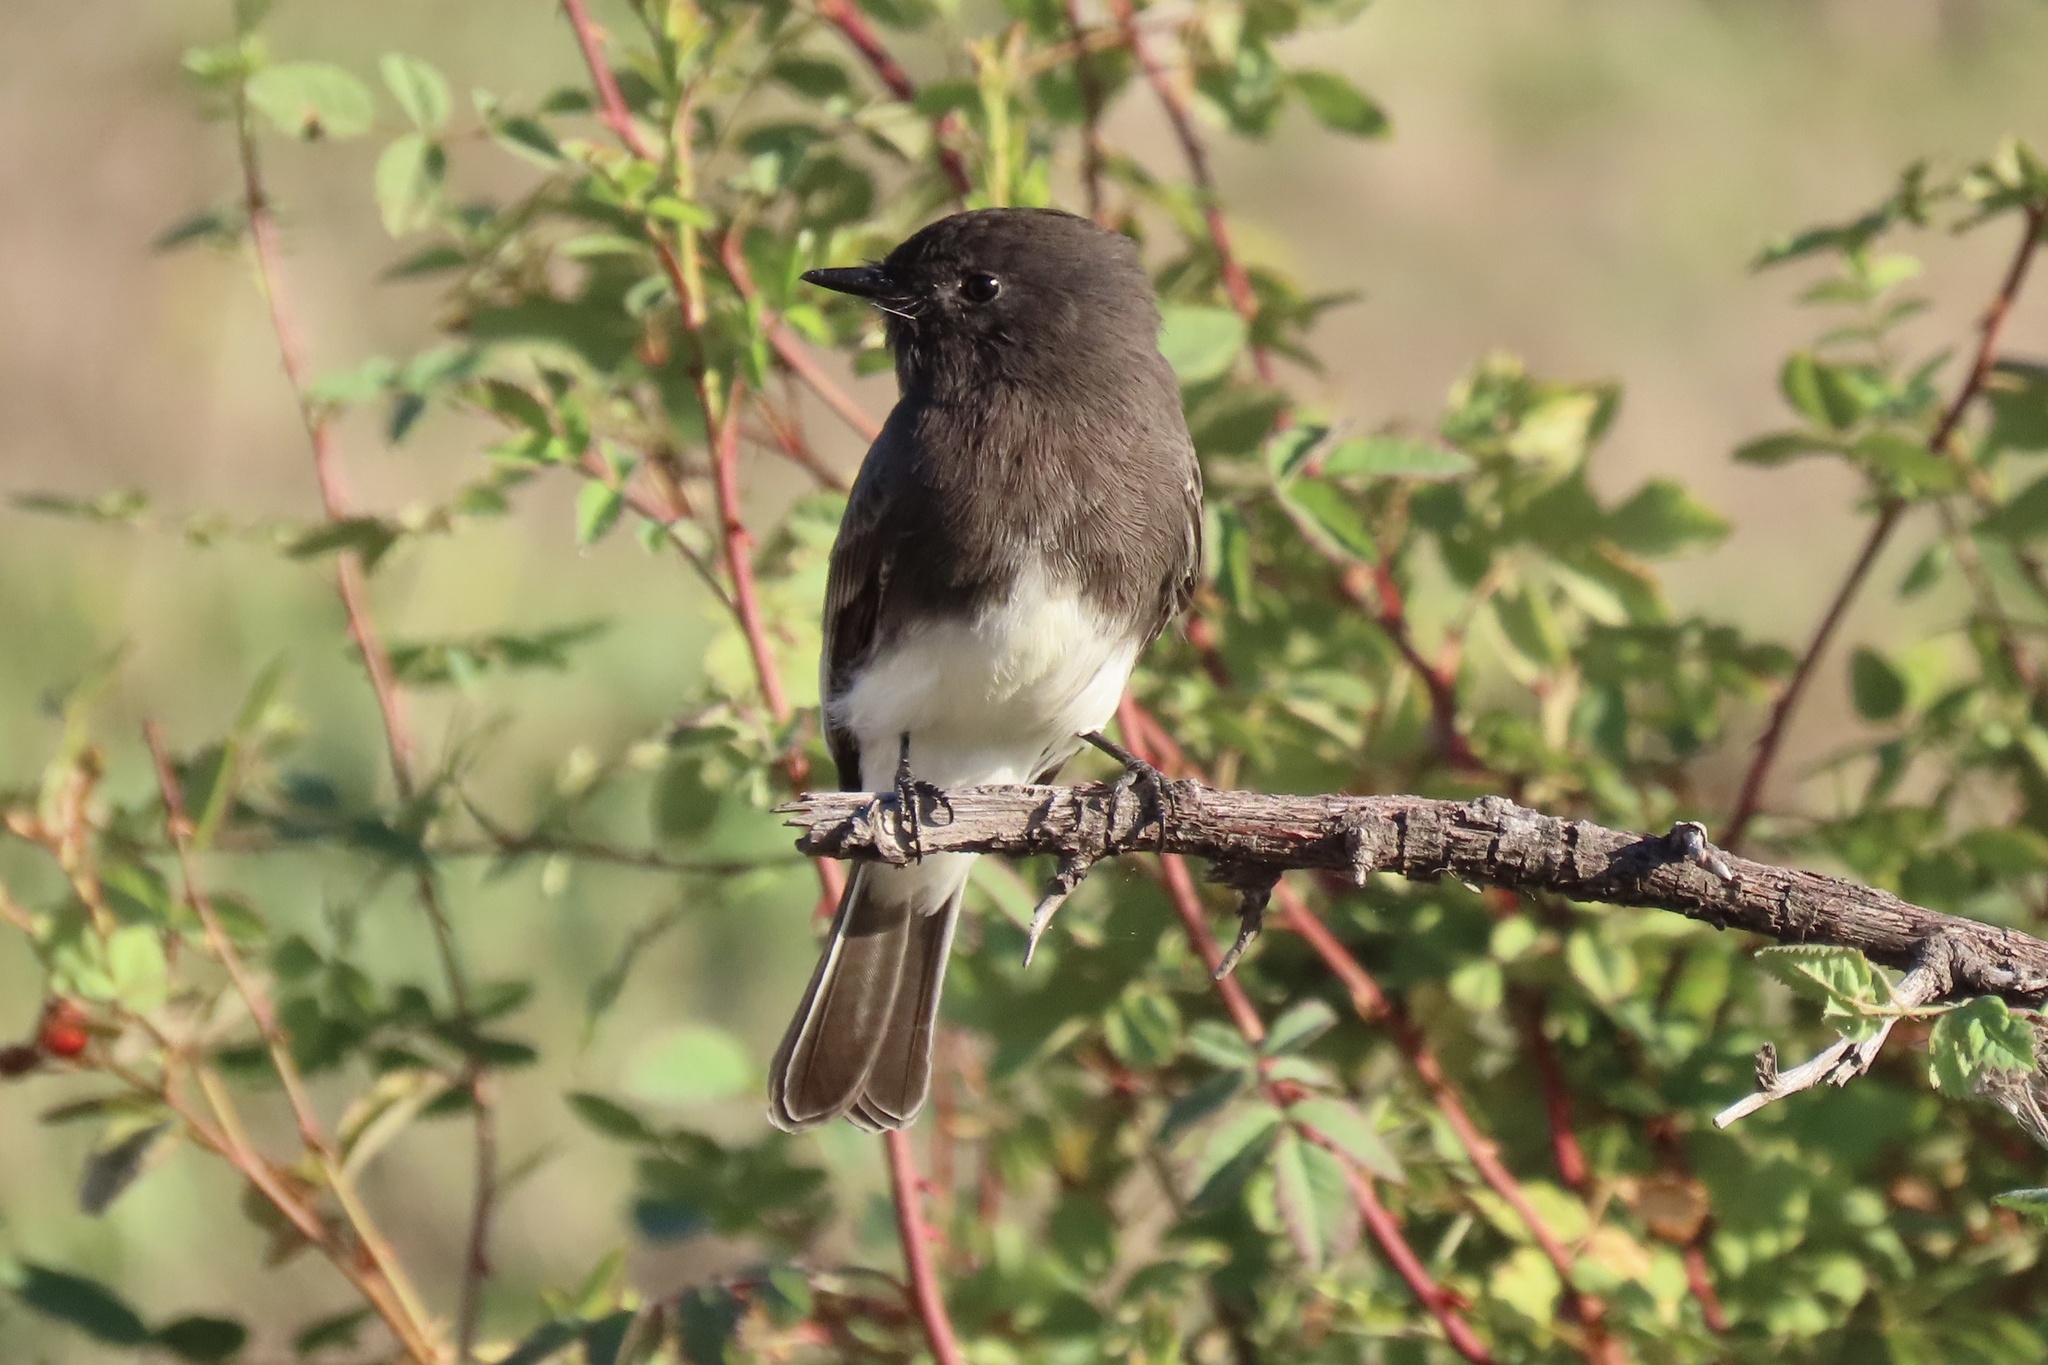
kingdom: Animalia
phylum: Chordata
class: Aves
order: Passeriformes
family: Tyrannidae
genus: Sayornis
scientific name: Sayornis nigricans
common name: Black phoebe
